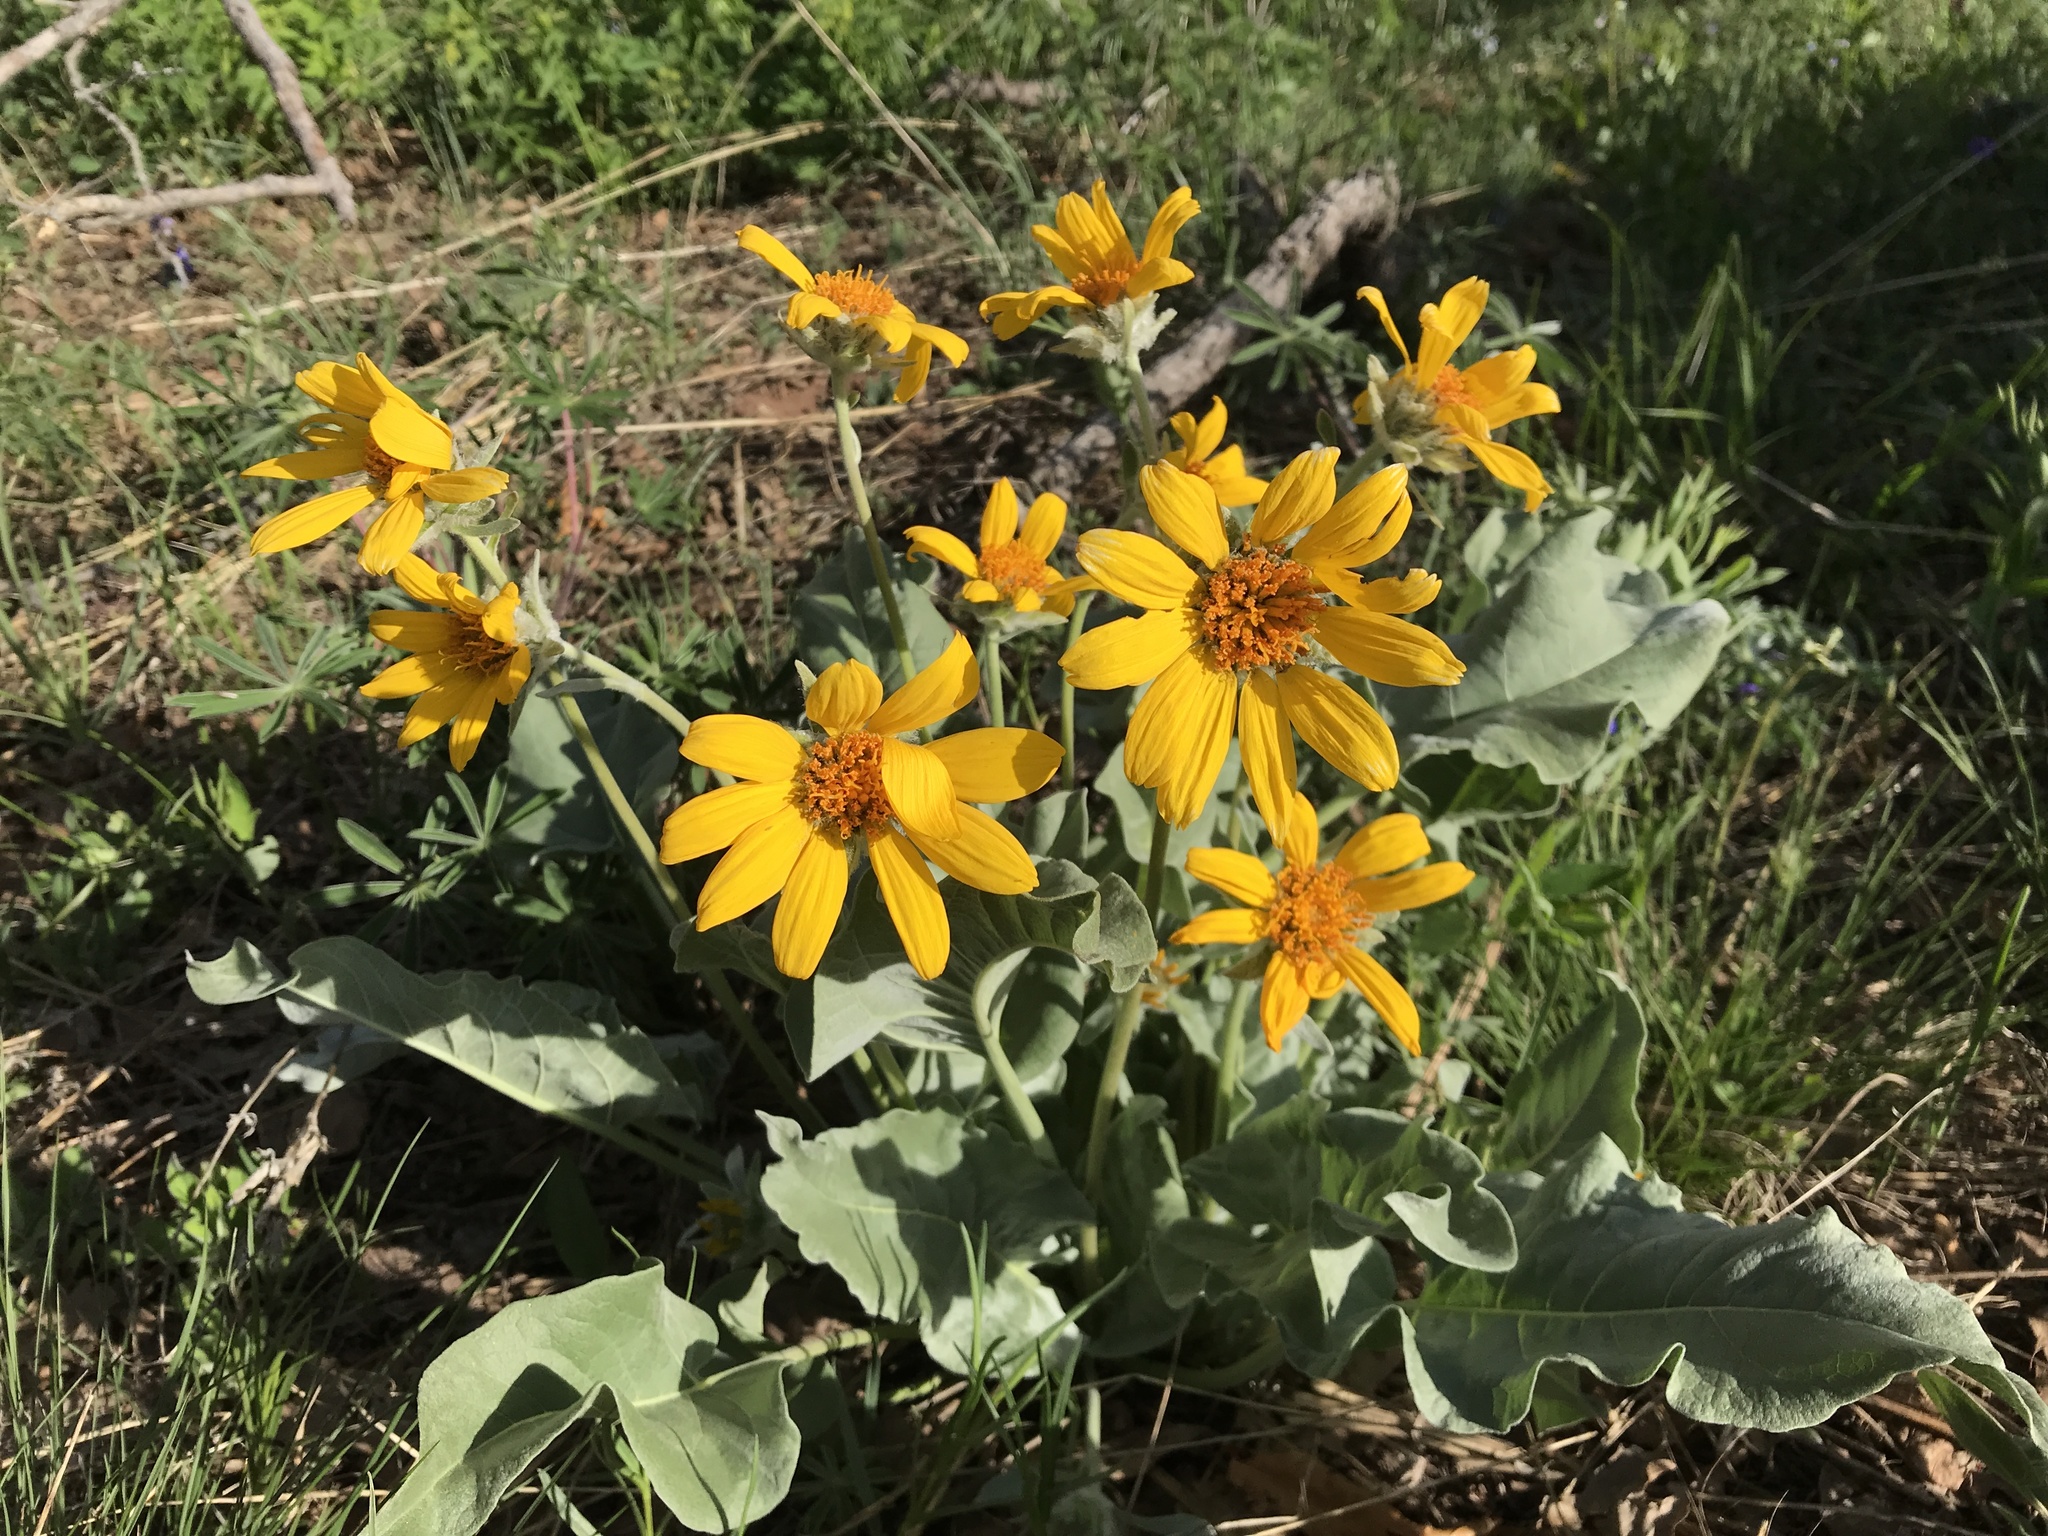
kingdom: Plantae
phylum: Tracheophyta
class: Magnoliopsida
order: Asterales
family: Asteraceae
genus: Wyethia
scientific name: Wyethia sagittata
